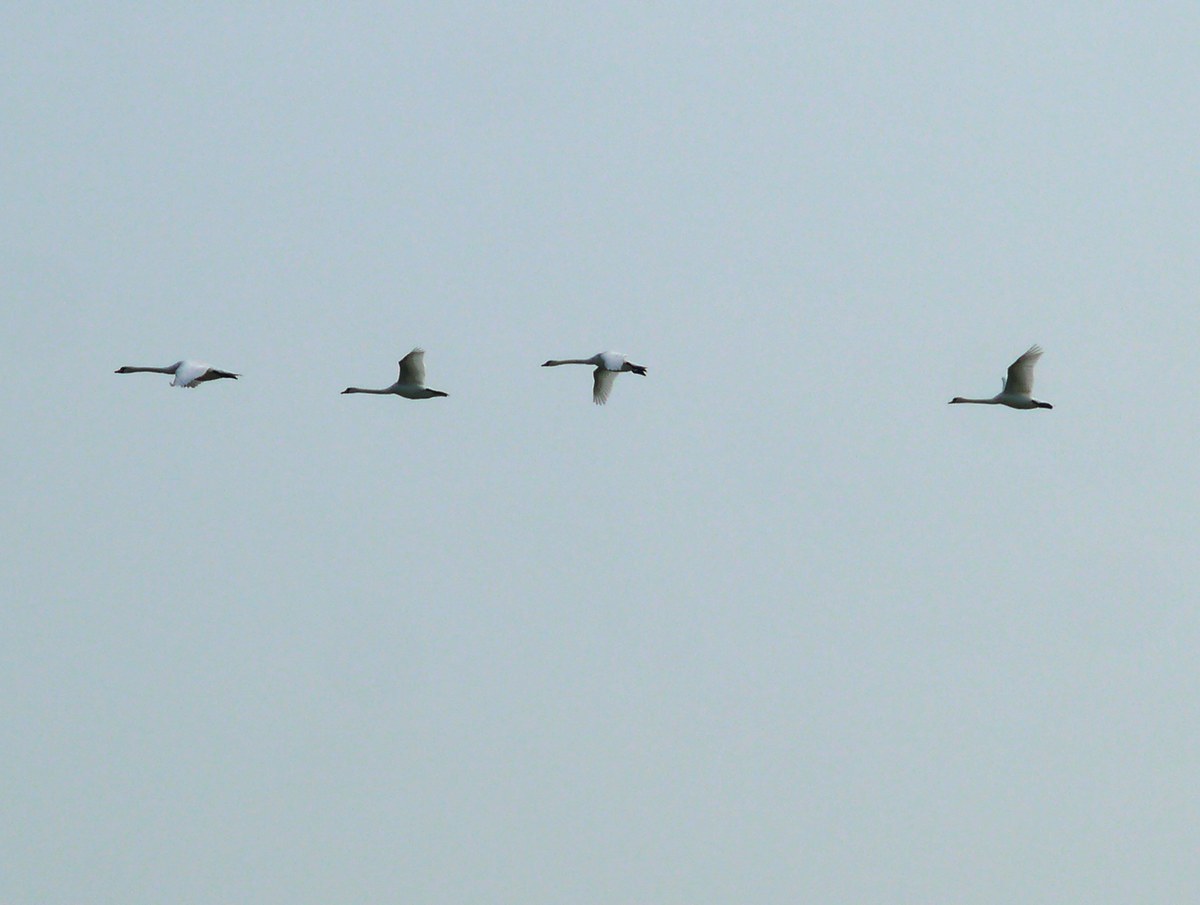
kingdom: Animalia
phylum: Chordata
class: Aves
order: Anseriformes
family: Anatidae
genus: Cygnus
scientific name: Cygnus olor
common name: Mute swan
